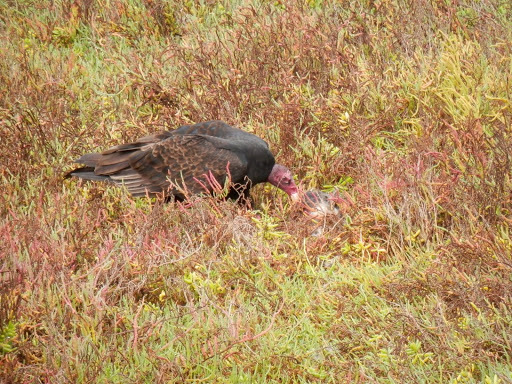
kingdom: Animalia
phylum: Chordata
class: Aves
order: Accipitriformes
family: Cathartidae
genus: Cathartes
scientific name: Cathartes aura
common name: Turkey vulture
